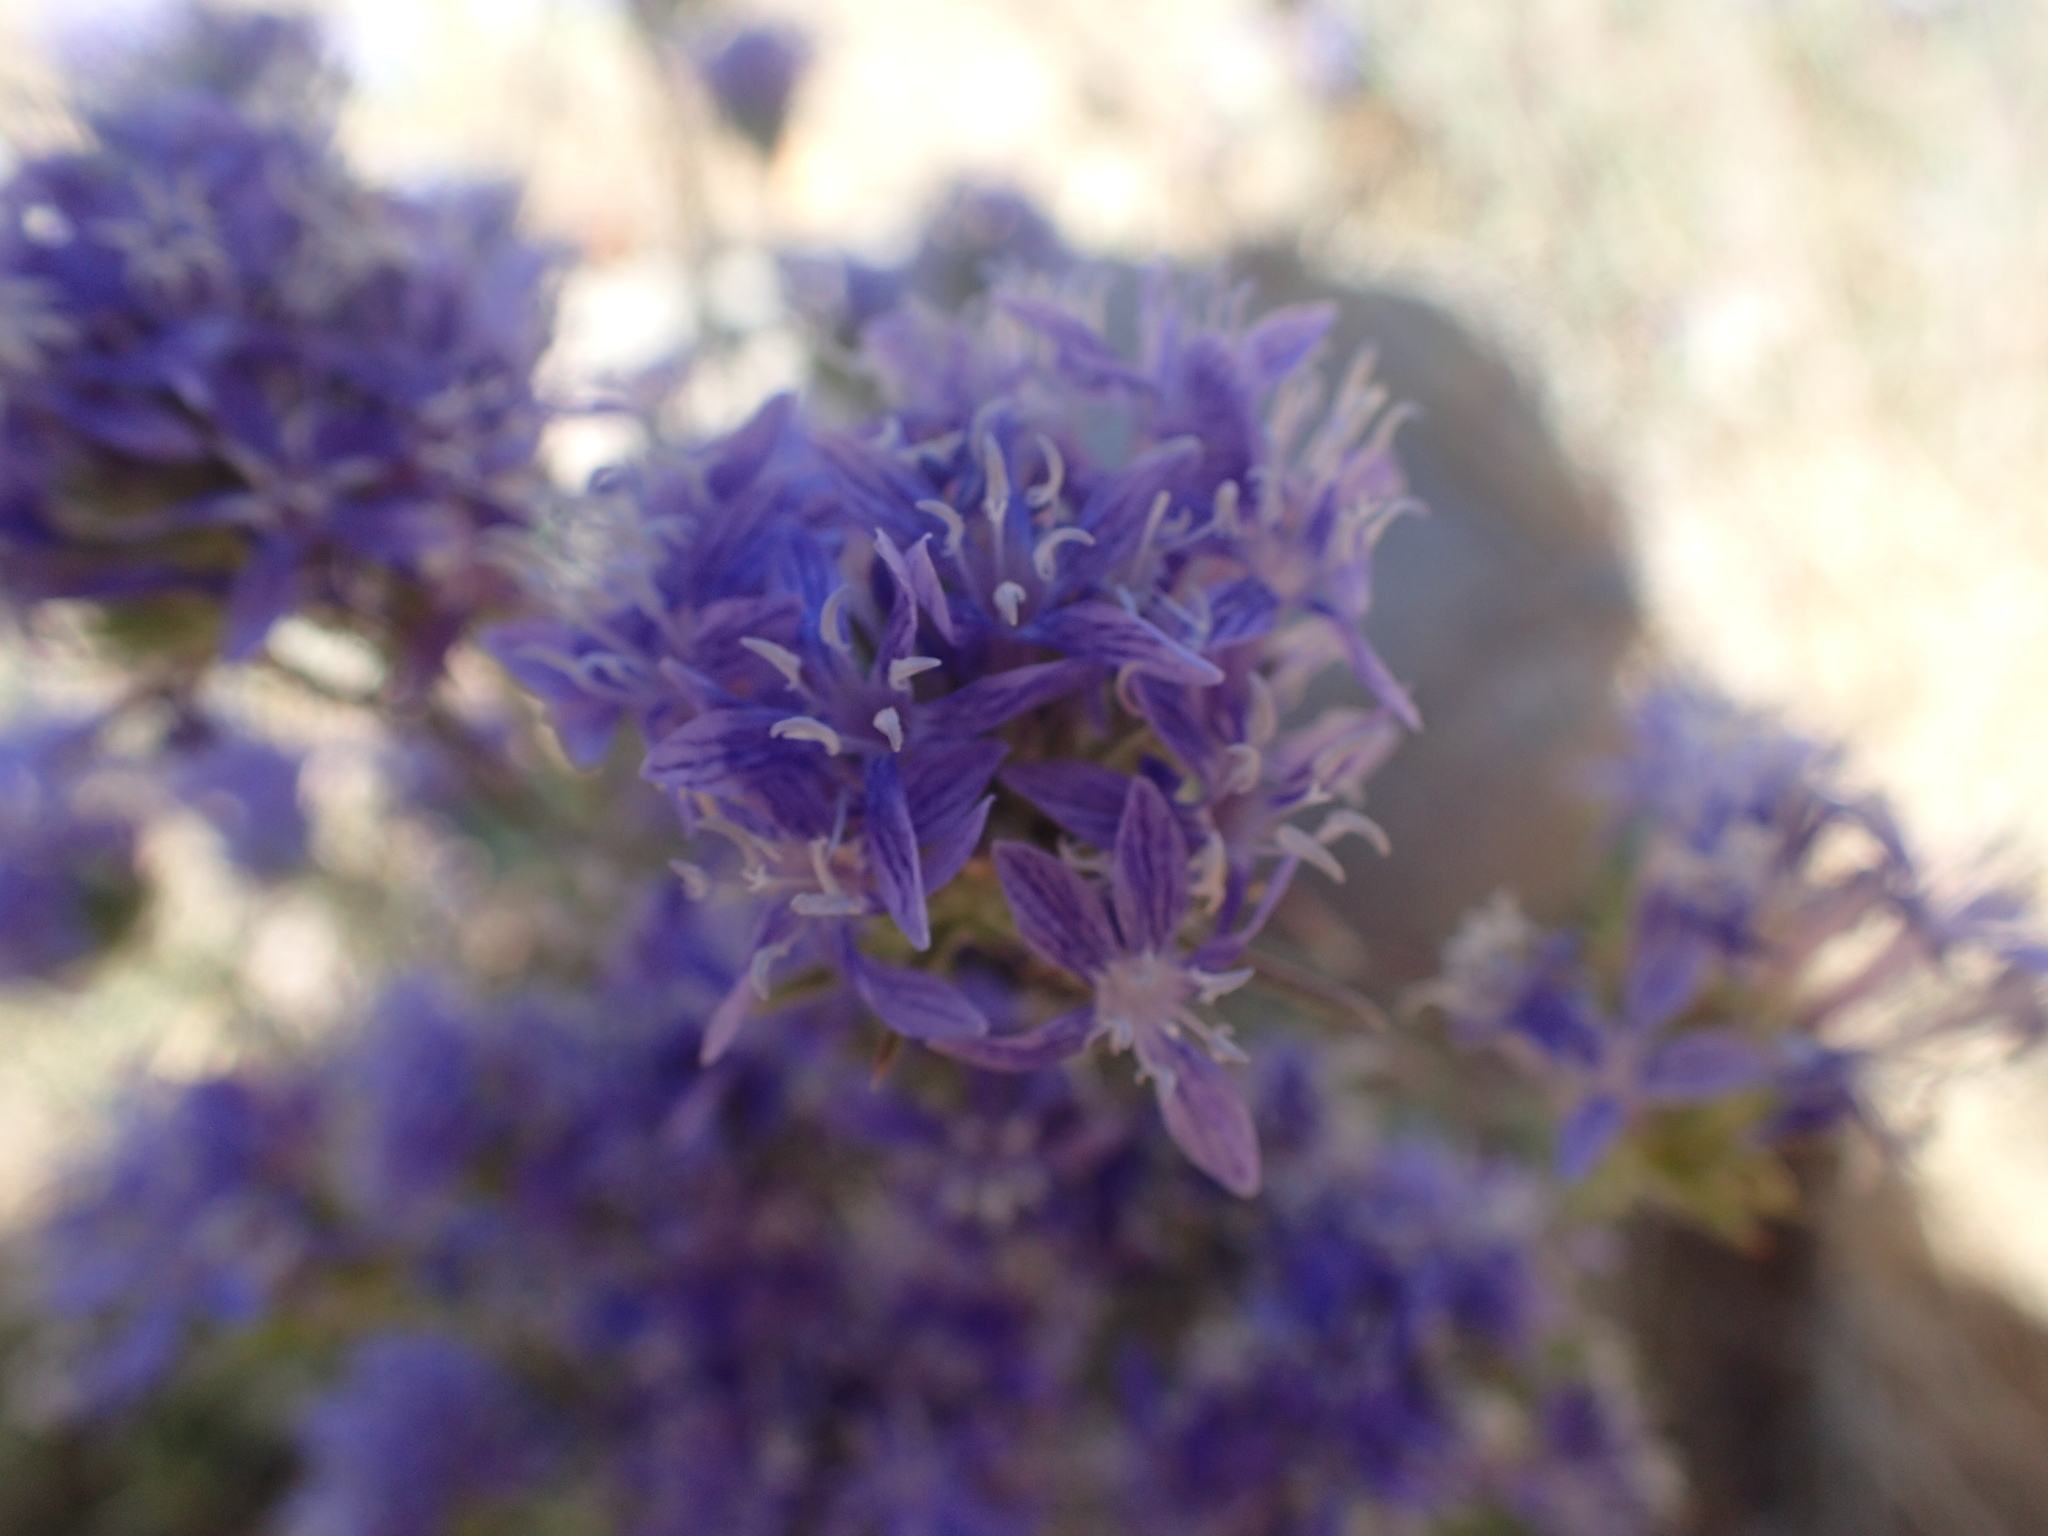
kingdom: Plantae
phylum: Tracheophyta
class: Magnoliopsida
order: Ericales
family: Polemoniaceae
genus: Eriastrum
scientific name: Eriastrum densifolium
